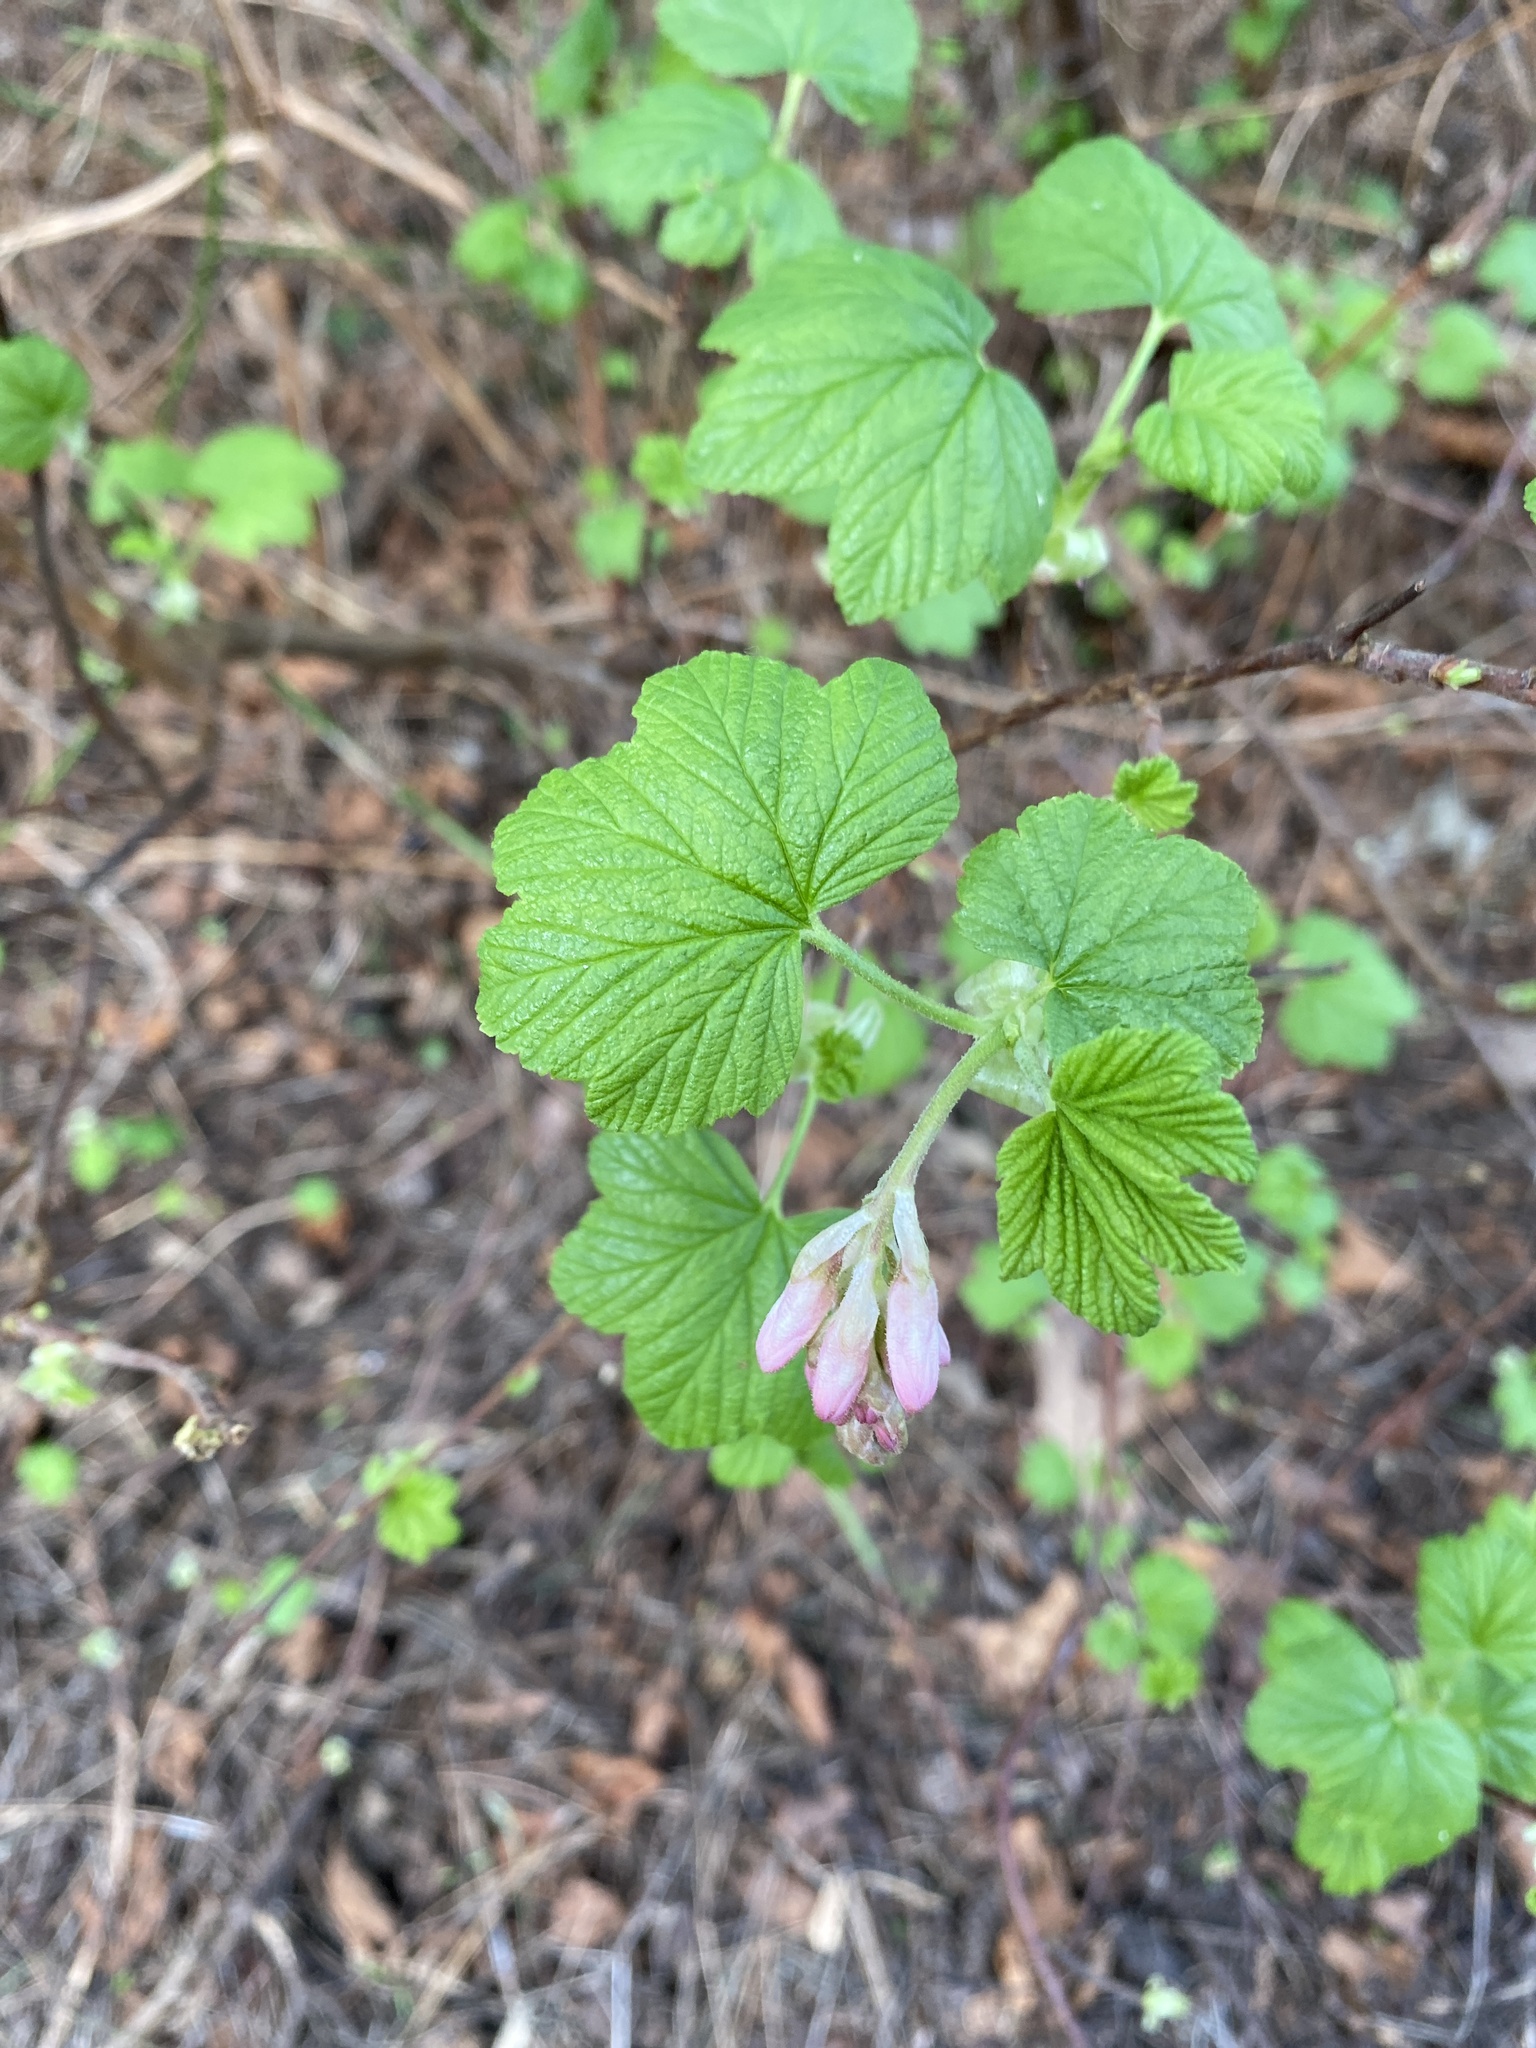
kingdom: Plantae
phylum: Tracheophyta
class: Magnoliopsida
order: Saxifragales
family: Grossulariaceae
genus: Ribes
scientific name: Ribes sanguineum
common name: Flowering currant
